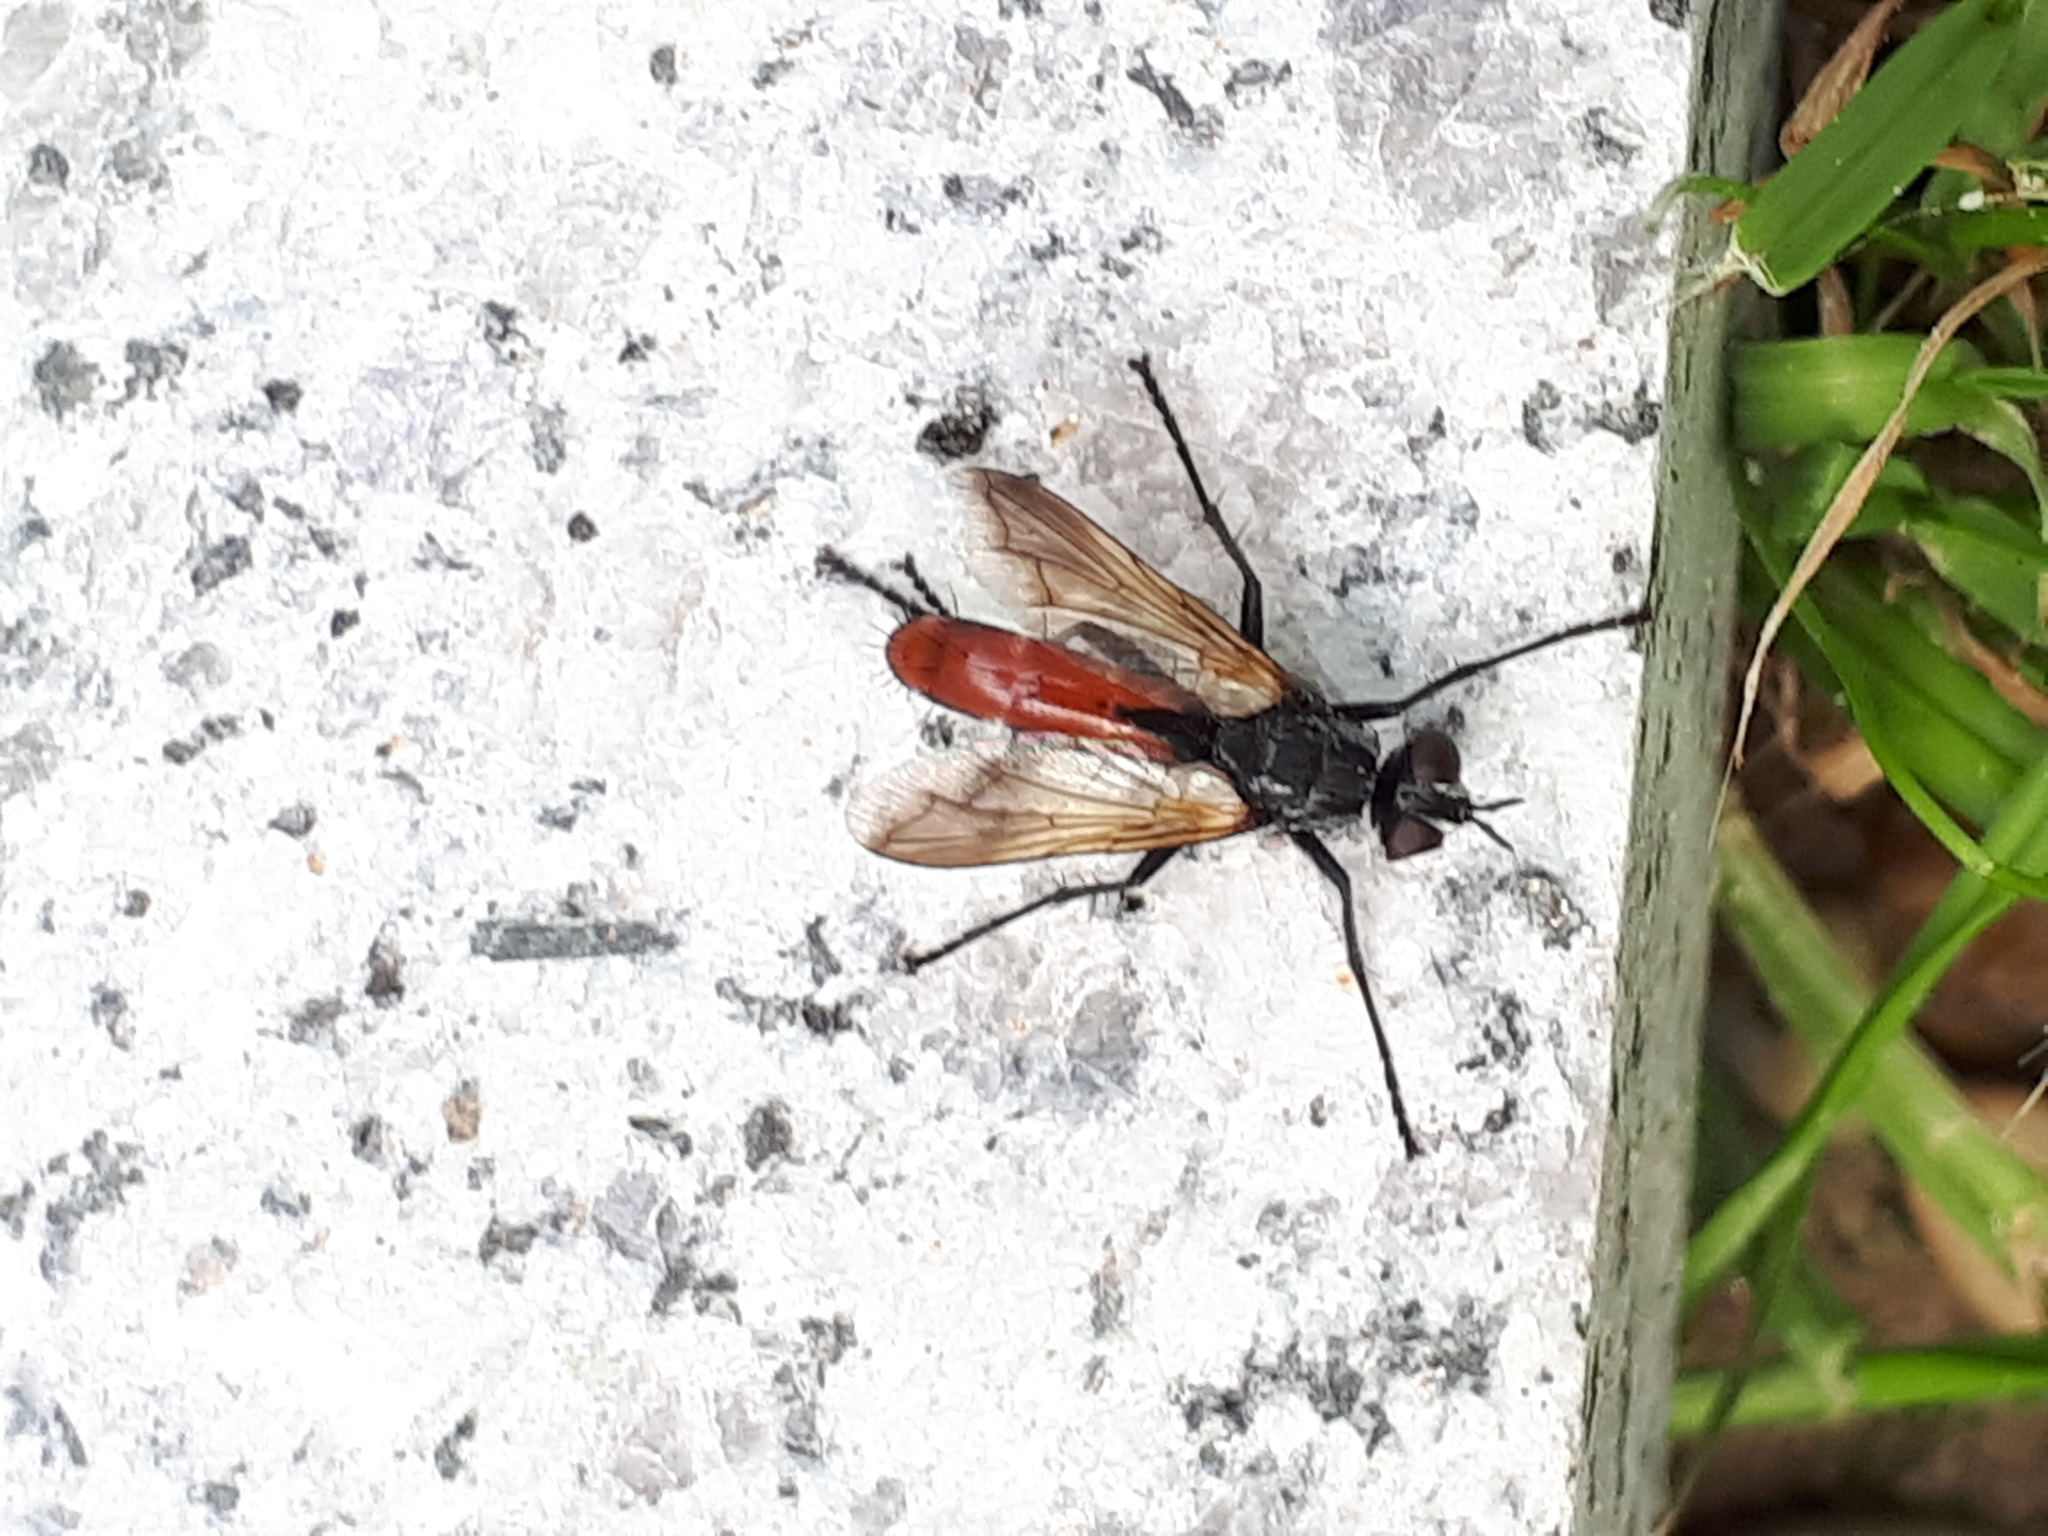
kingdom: Animalia
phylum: Arthropoda
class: Insecta
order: Diptera
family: Tachinidae
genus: Cylindromyia
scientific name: Cylindromyia bicolor
